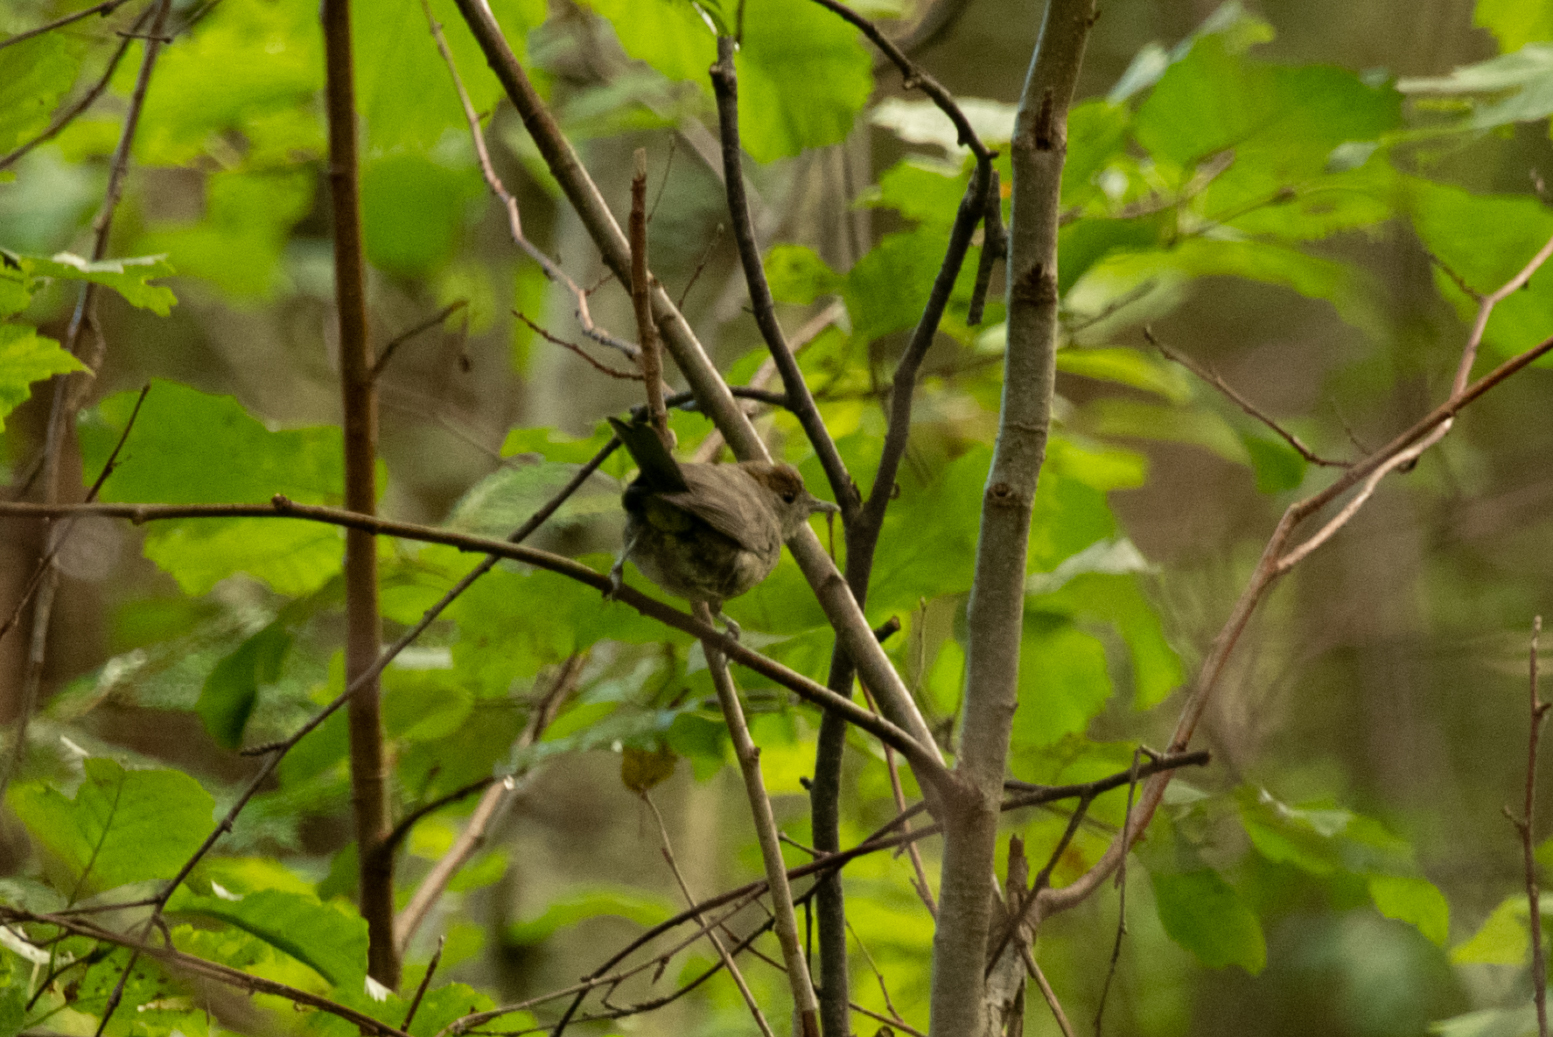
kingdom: Animalia
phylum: Chordata
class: Aves
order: Passeriformes
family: Sylviidae
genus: Sylvia
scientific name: Sylvia atricapilla
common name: Eurasian blackcap
